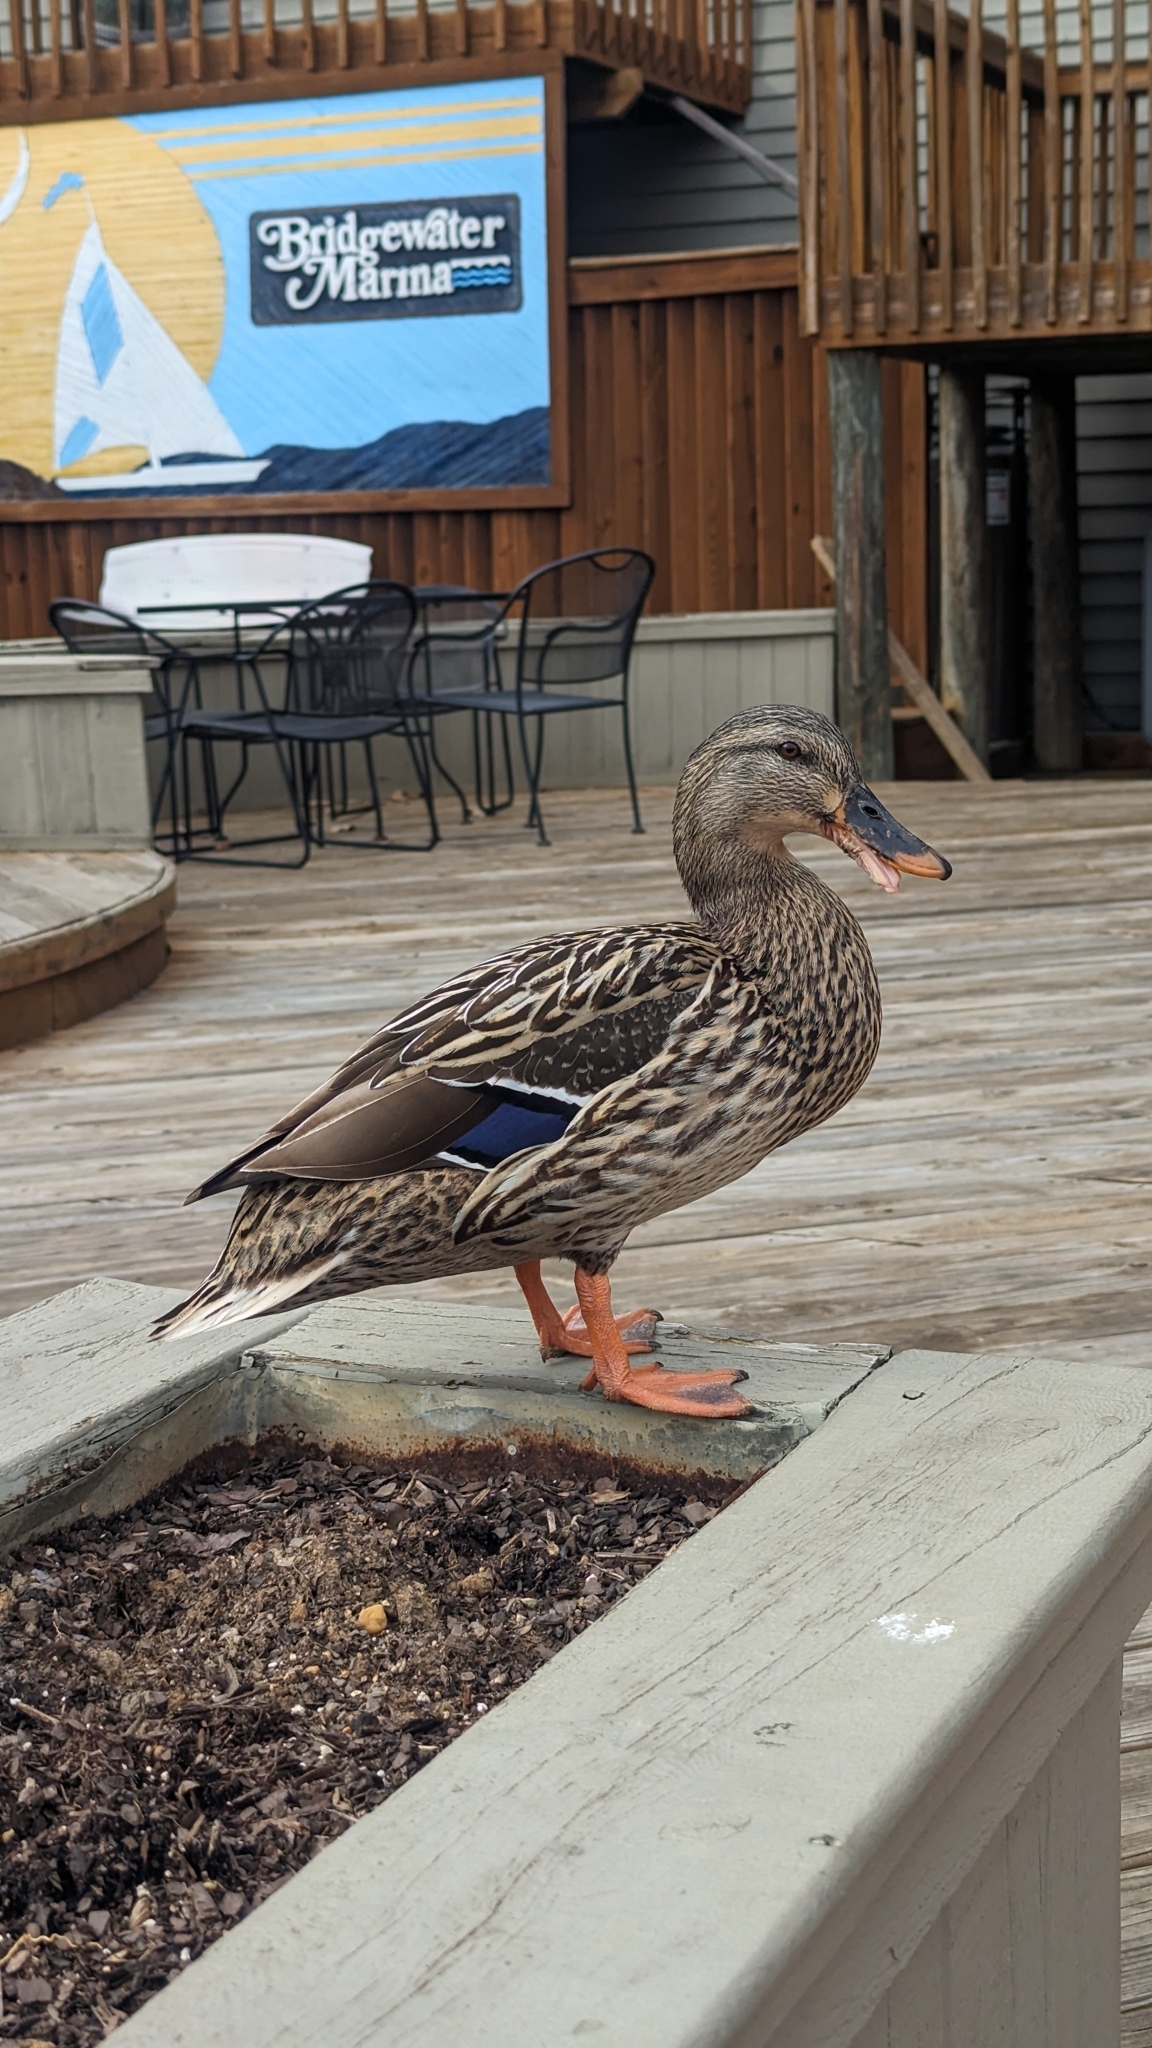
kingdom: Animalia
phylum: Chordata
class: Aves
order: Anseriformes
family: Anatidae
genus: Anas
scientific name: Anas platyrhynchos
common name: Mallard
